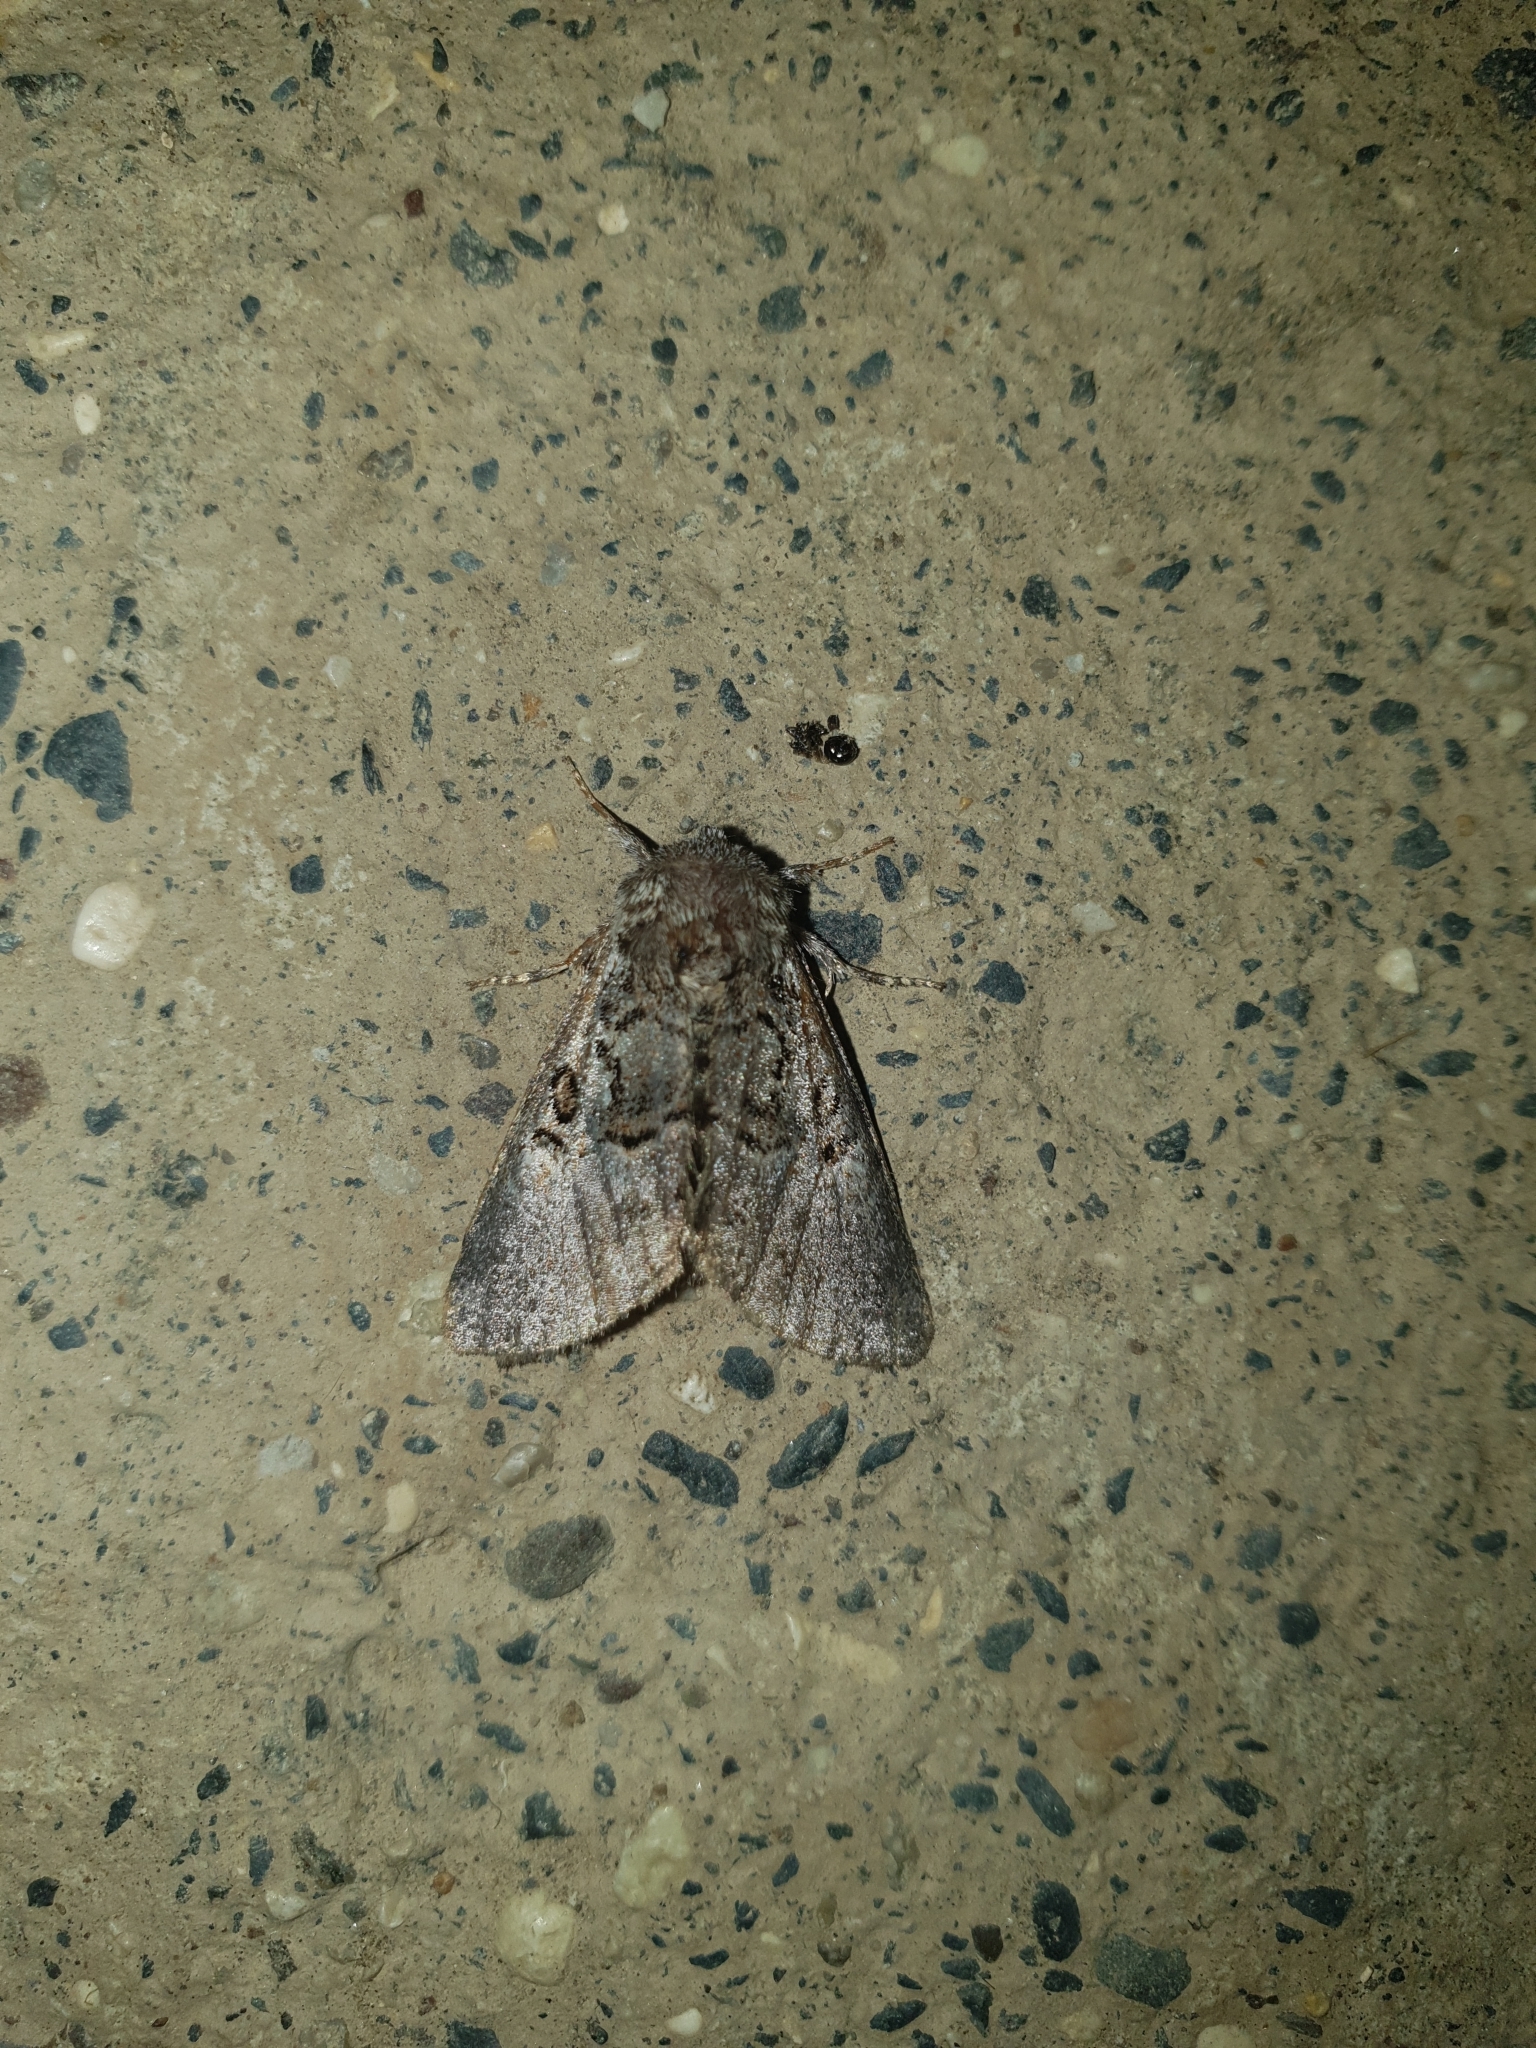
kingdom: Animalia
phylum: Arthropoda
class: Insecta
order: Lepidoptera
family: Noctuidae
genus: Colocasia
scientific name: Colocasia coryli
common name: Nut-tree tussock
